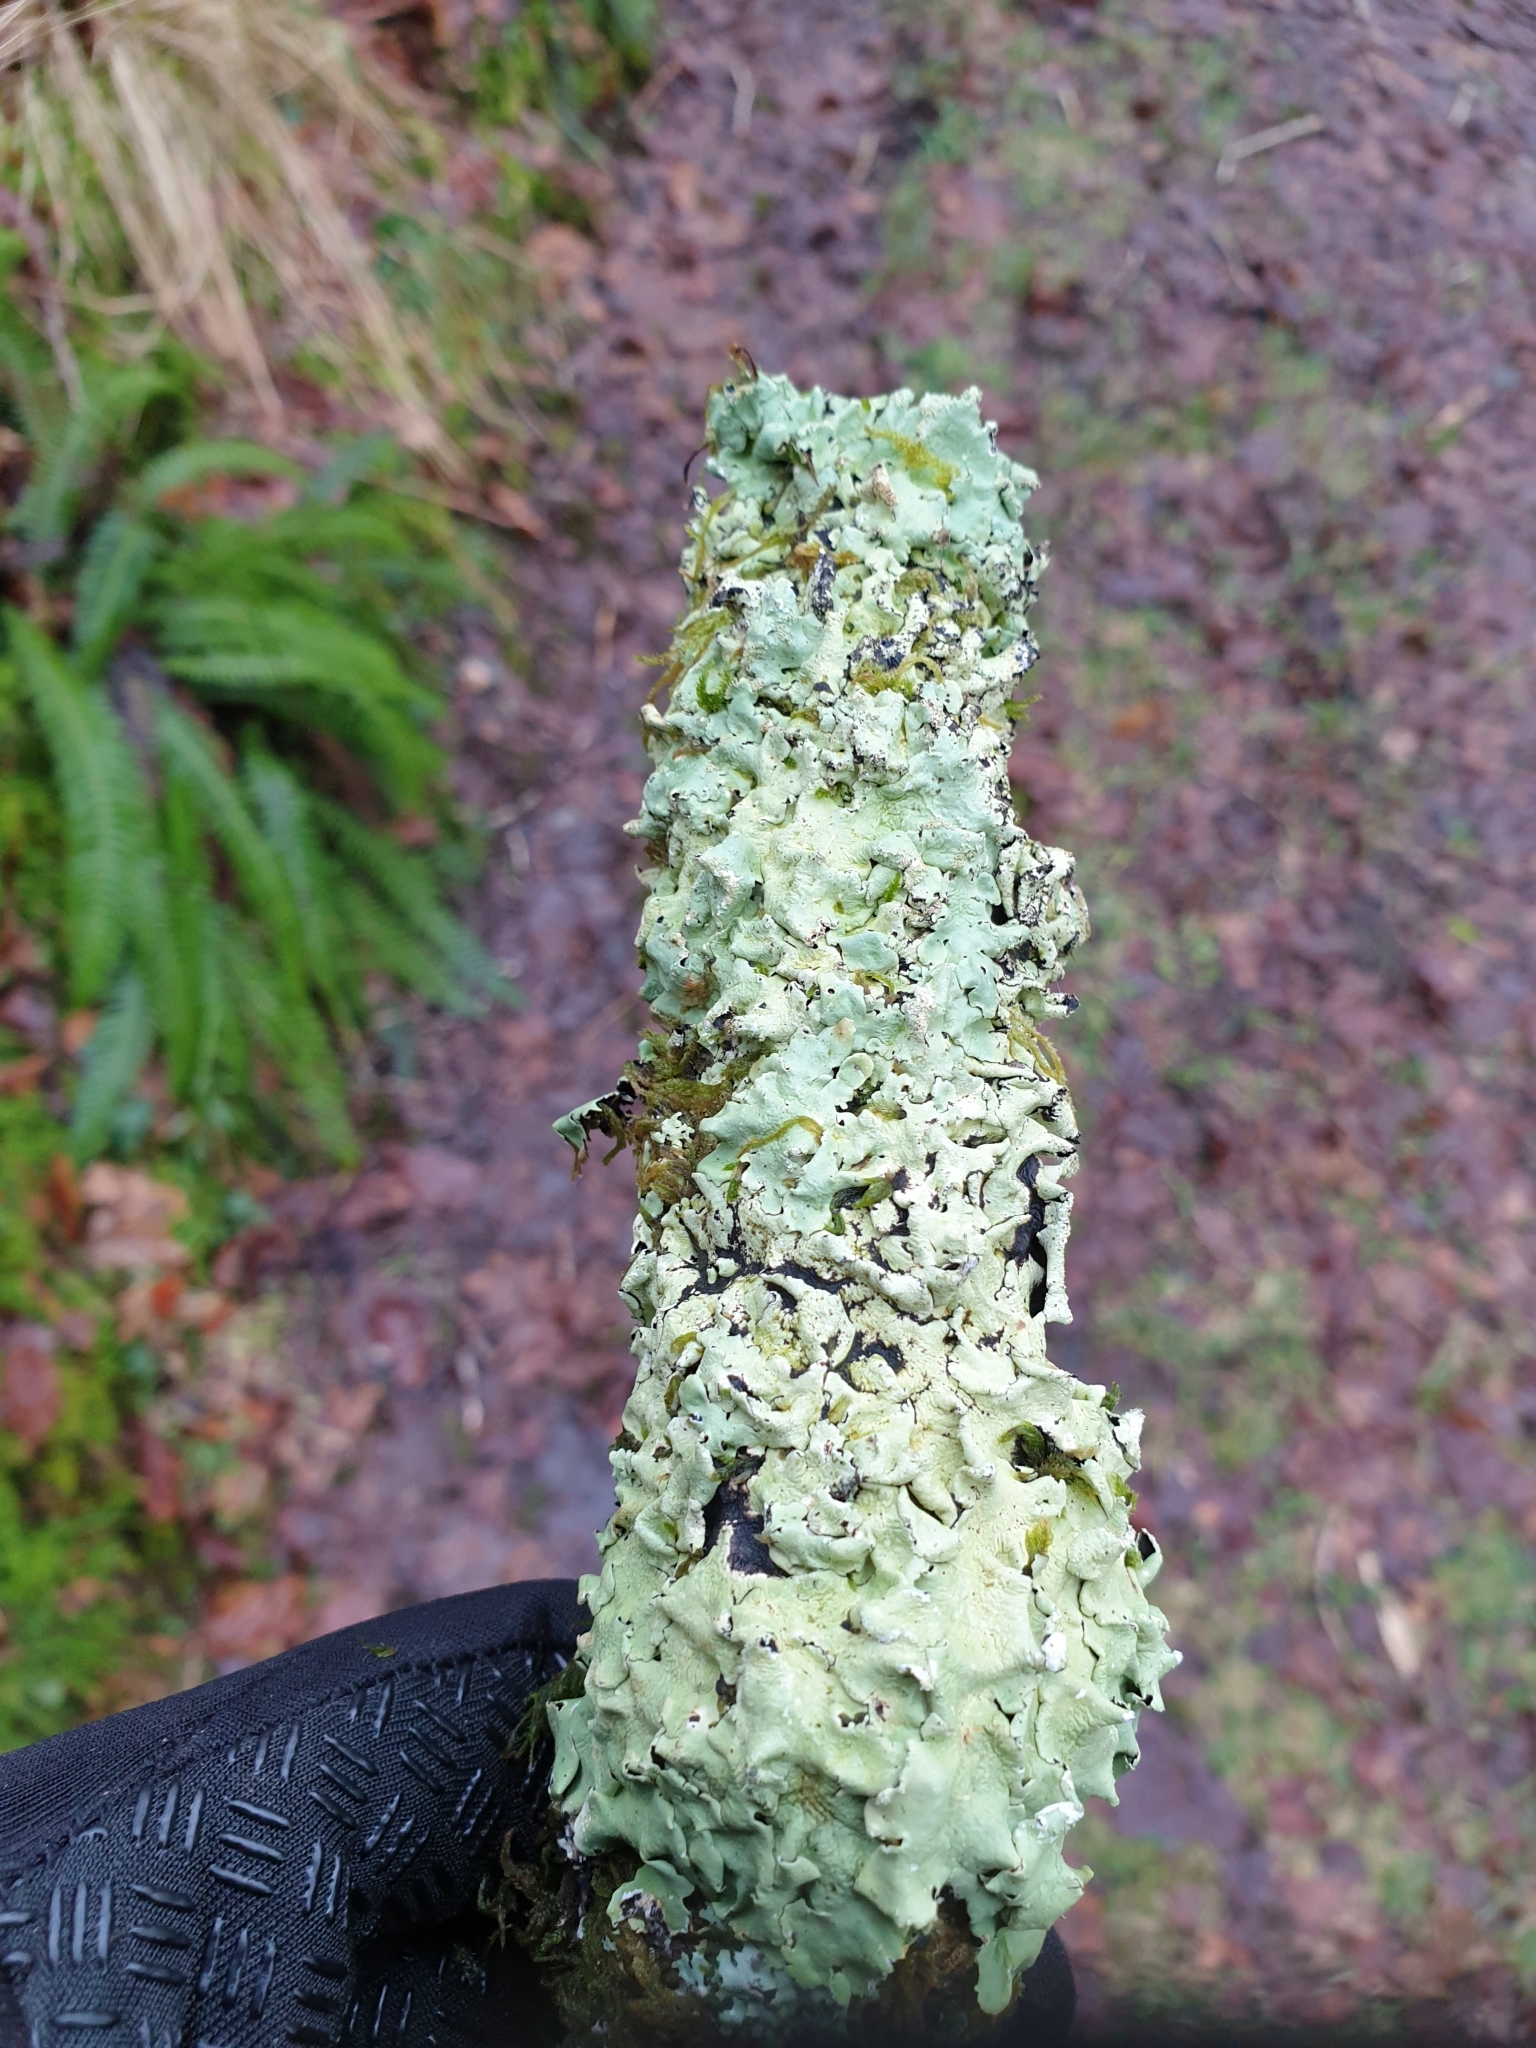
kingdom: Fungi
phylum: Ascomycota
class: Lecanoromycetes
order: Lecanorales
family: Parmeliaceae
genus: Flavoparmelia
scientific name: Flavoparmelia caperata
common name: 40-mile per hour lichen
